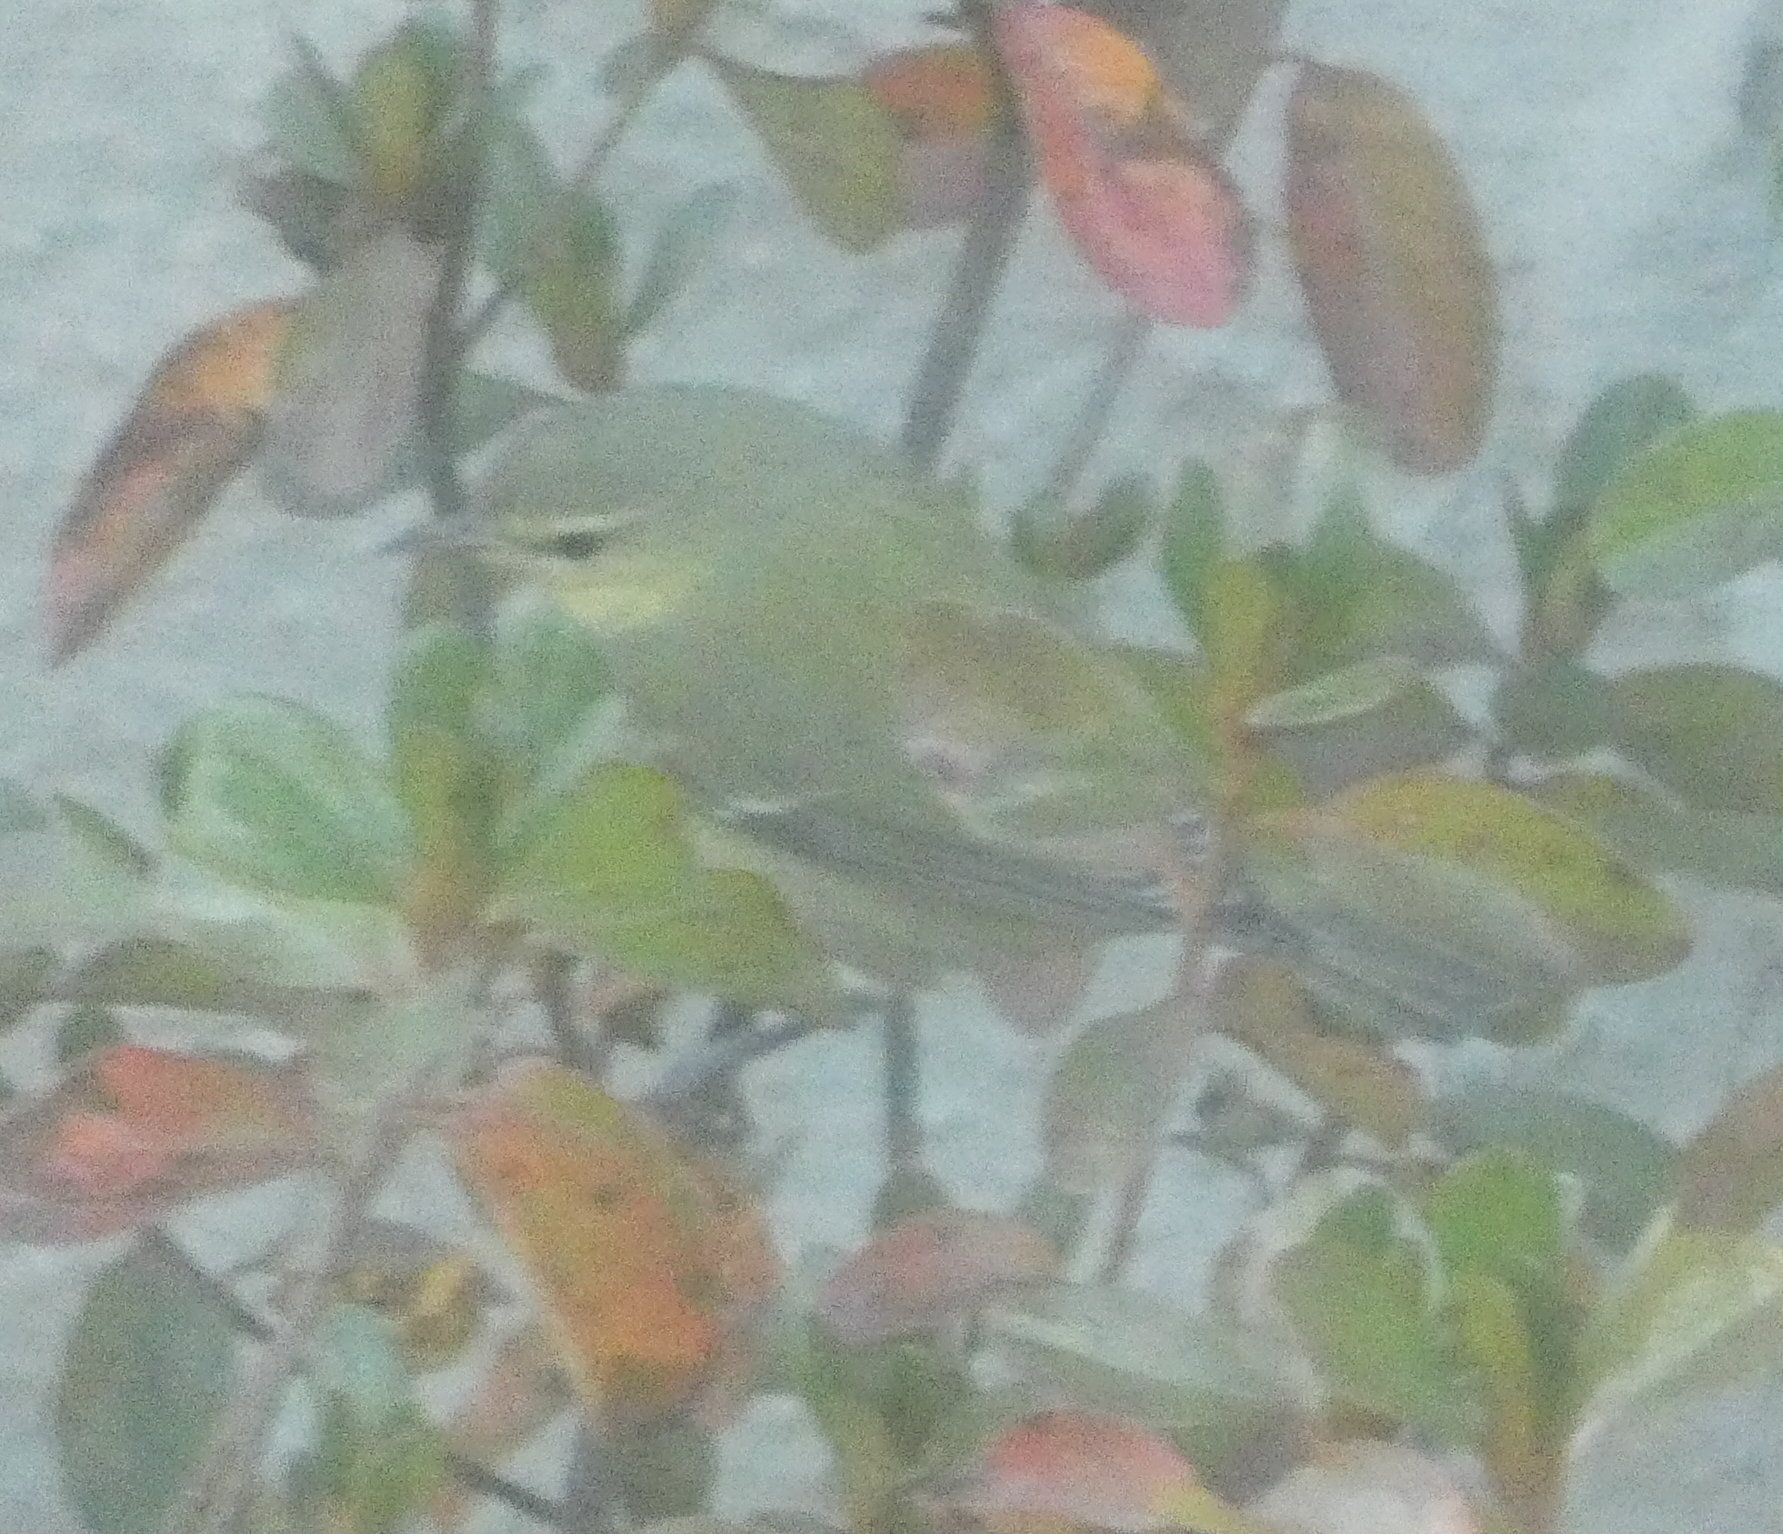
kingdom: Animalia
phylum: Chordata
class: Aves
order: Passeriformes
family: Parulidae
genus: Leiothlypis
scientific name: Leiothlypis peregrina
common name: Tennessee warbler
